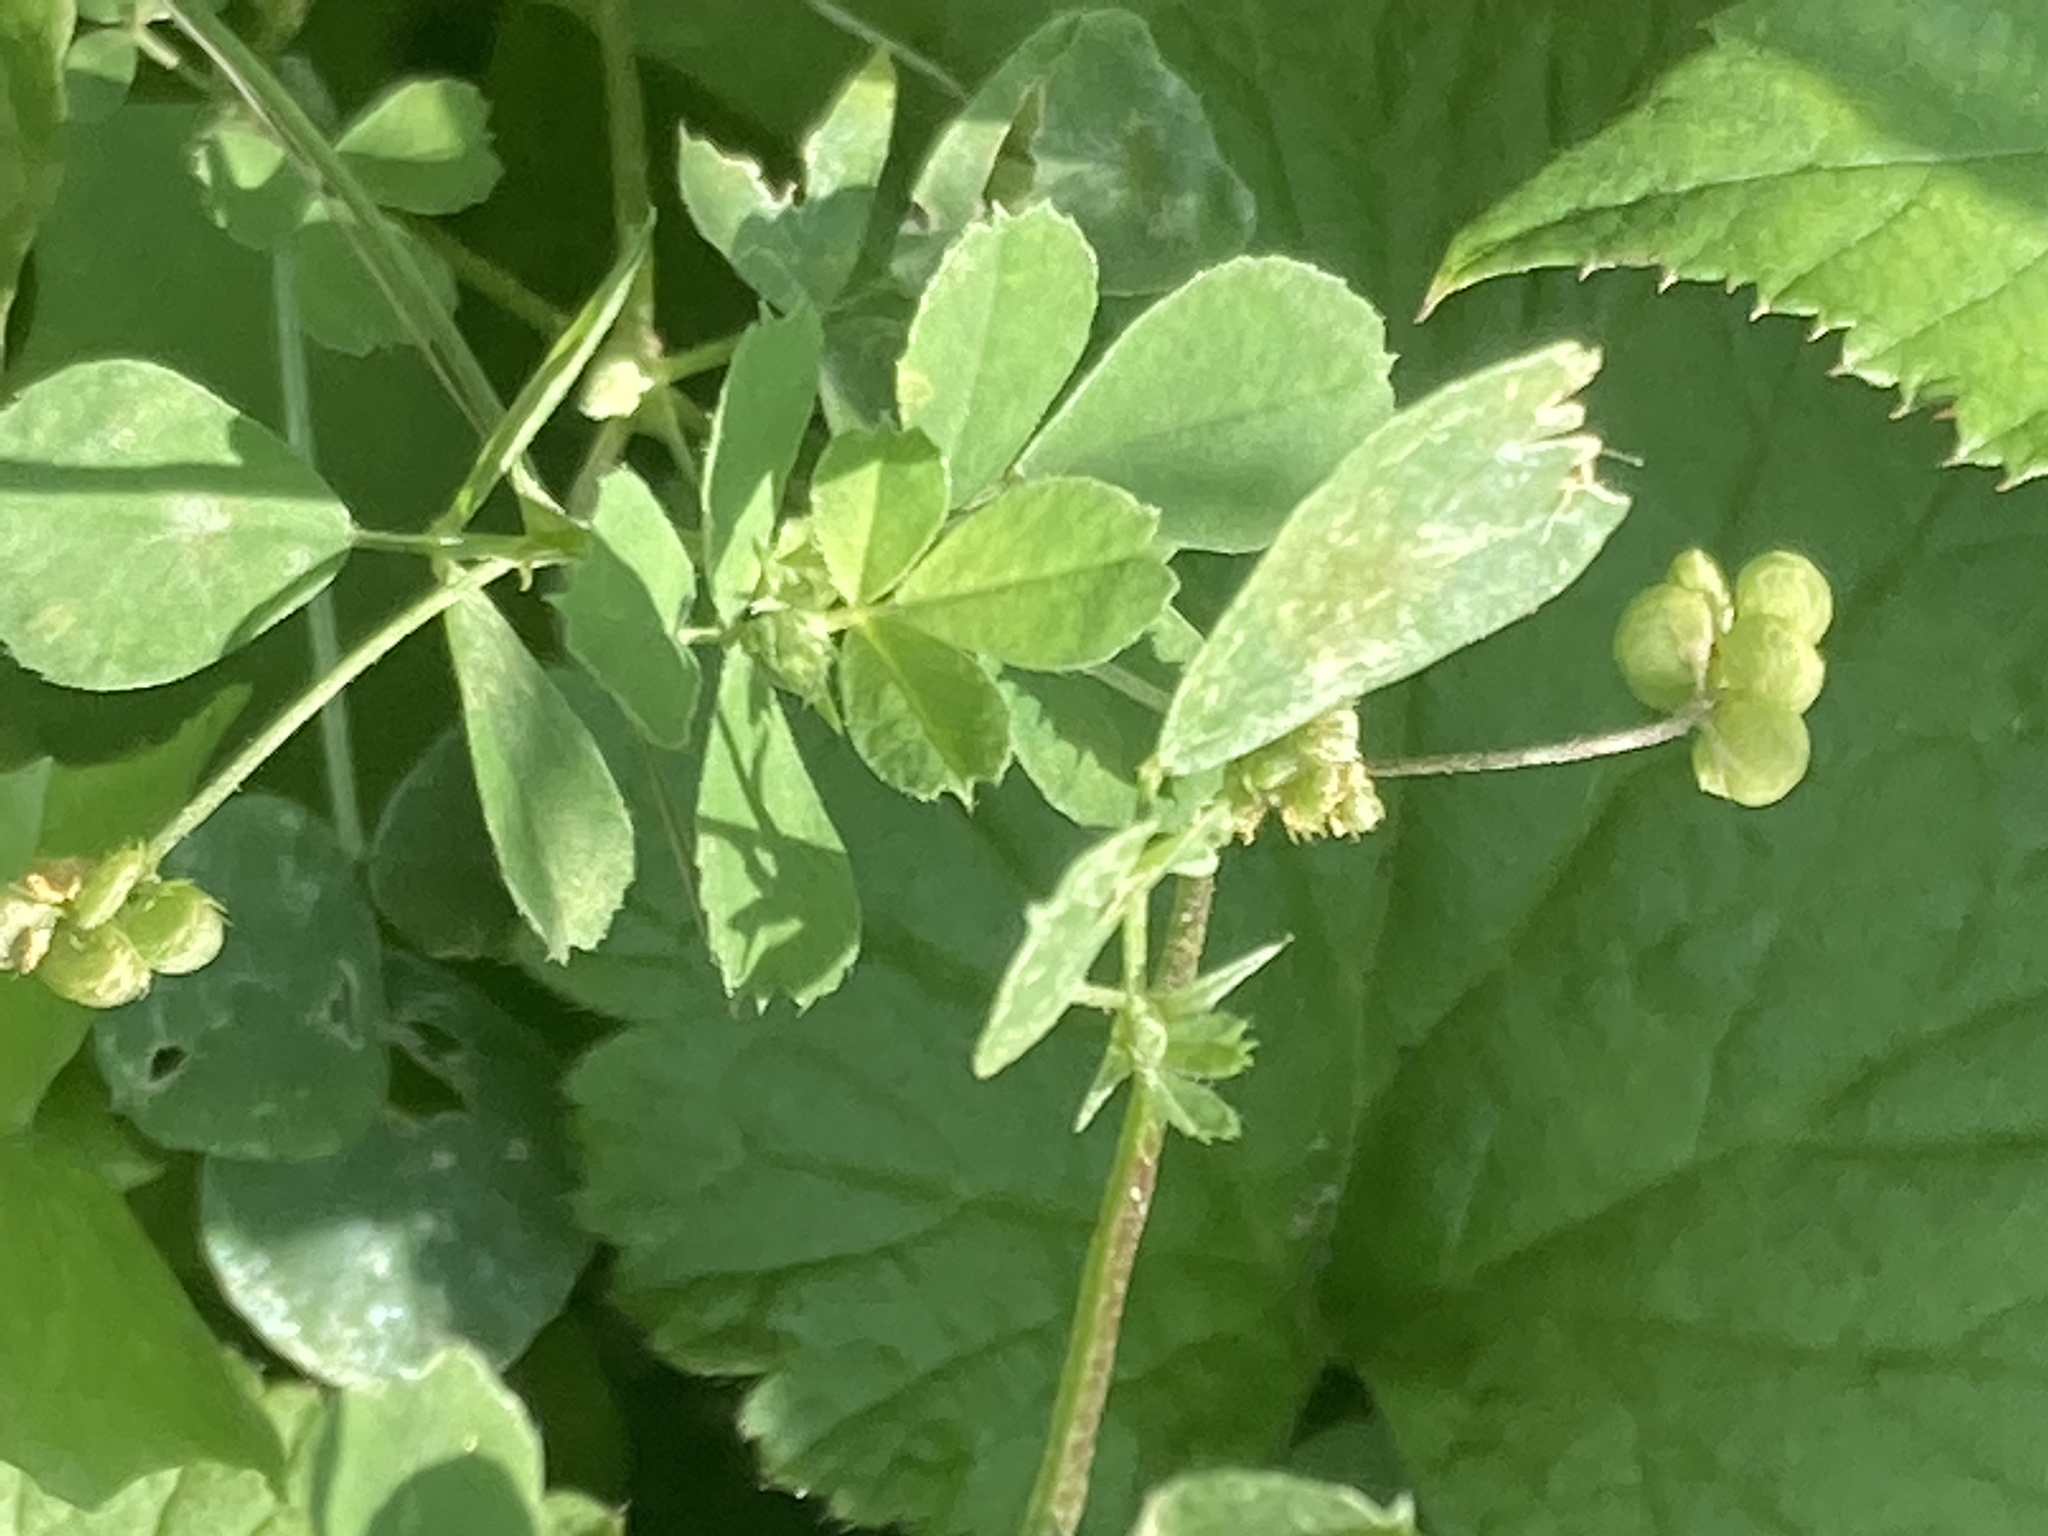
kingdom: Plantae
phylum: Tracheophyta
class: Magnoliopsida
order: Fabales
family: Fabaceae
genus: Medicago
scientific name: Medicago lupulina
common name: Black medick
